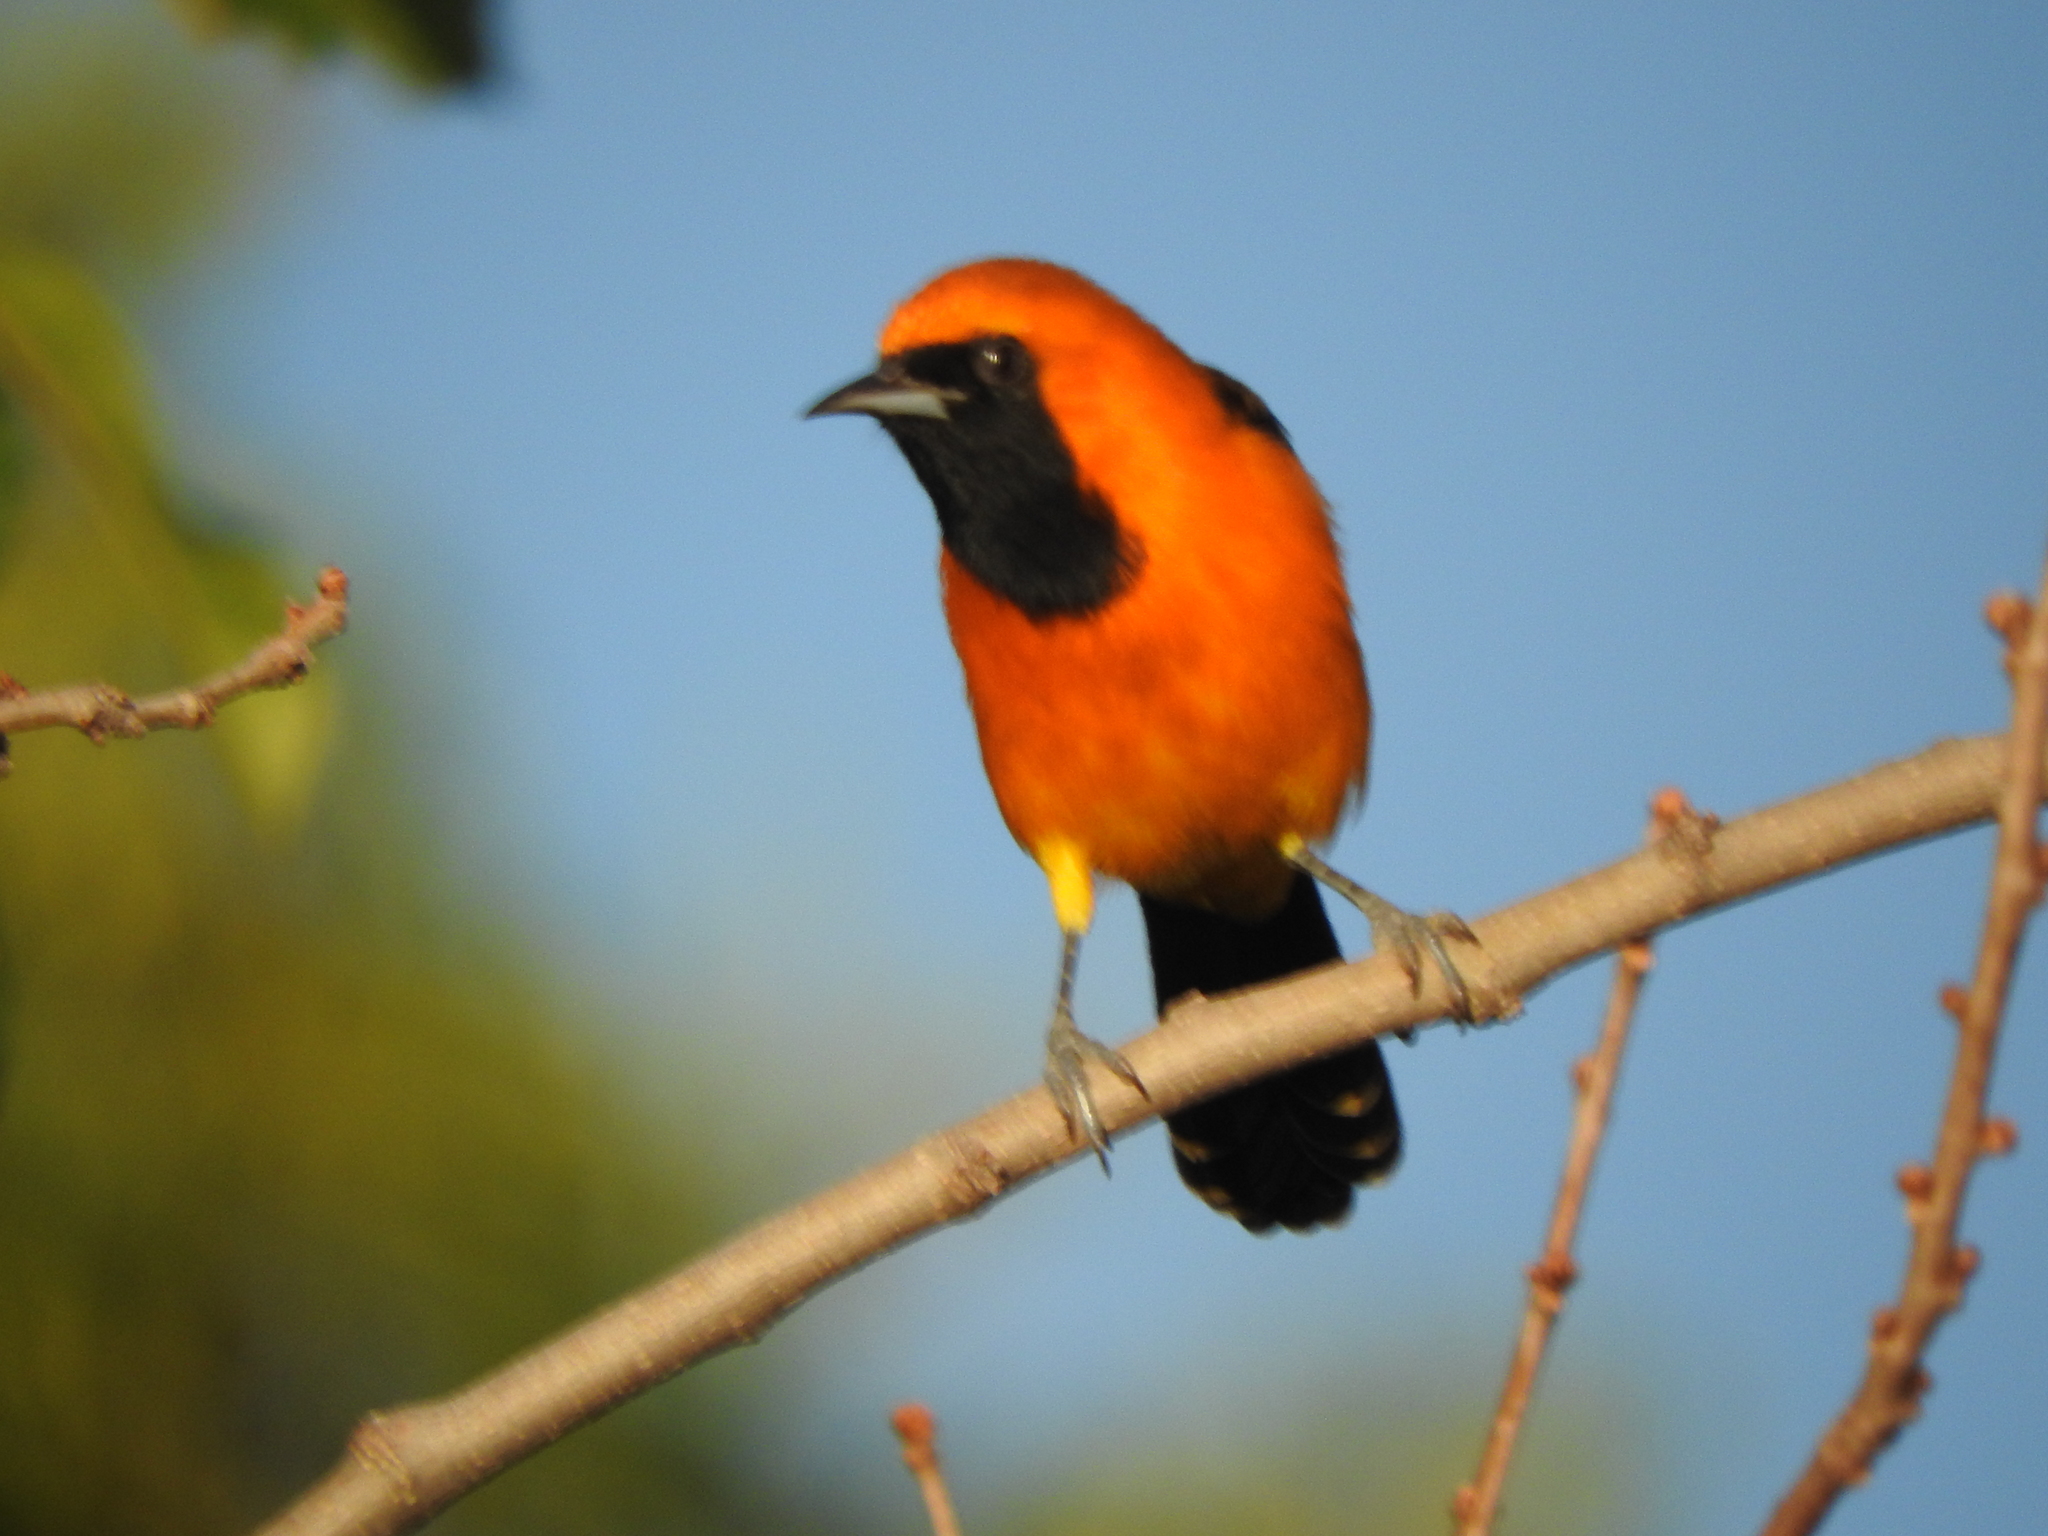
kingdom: Animalia
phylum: Chordata
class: Aves
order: Passeriformes
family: Icteridae
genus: Icterus
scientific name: Icterus cucullatus
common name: Hooded oriole
